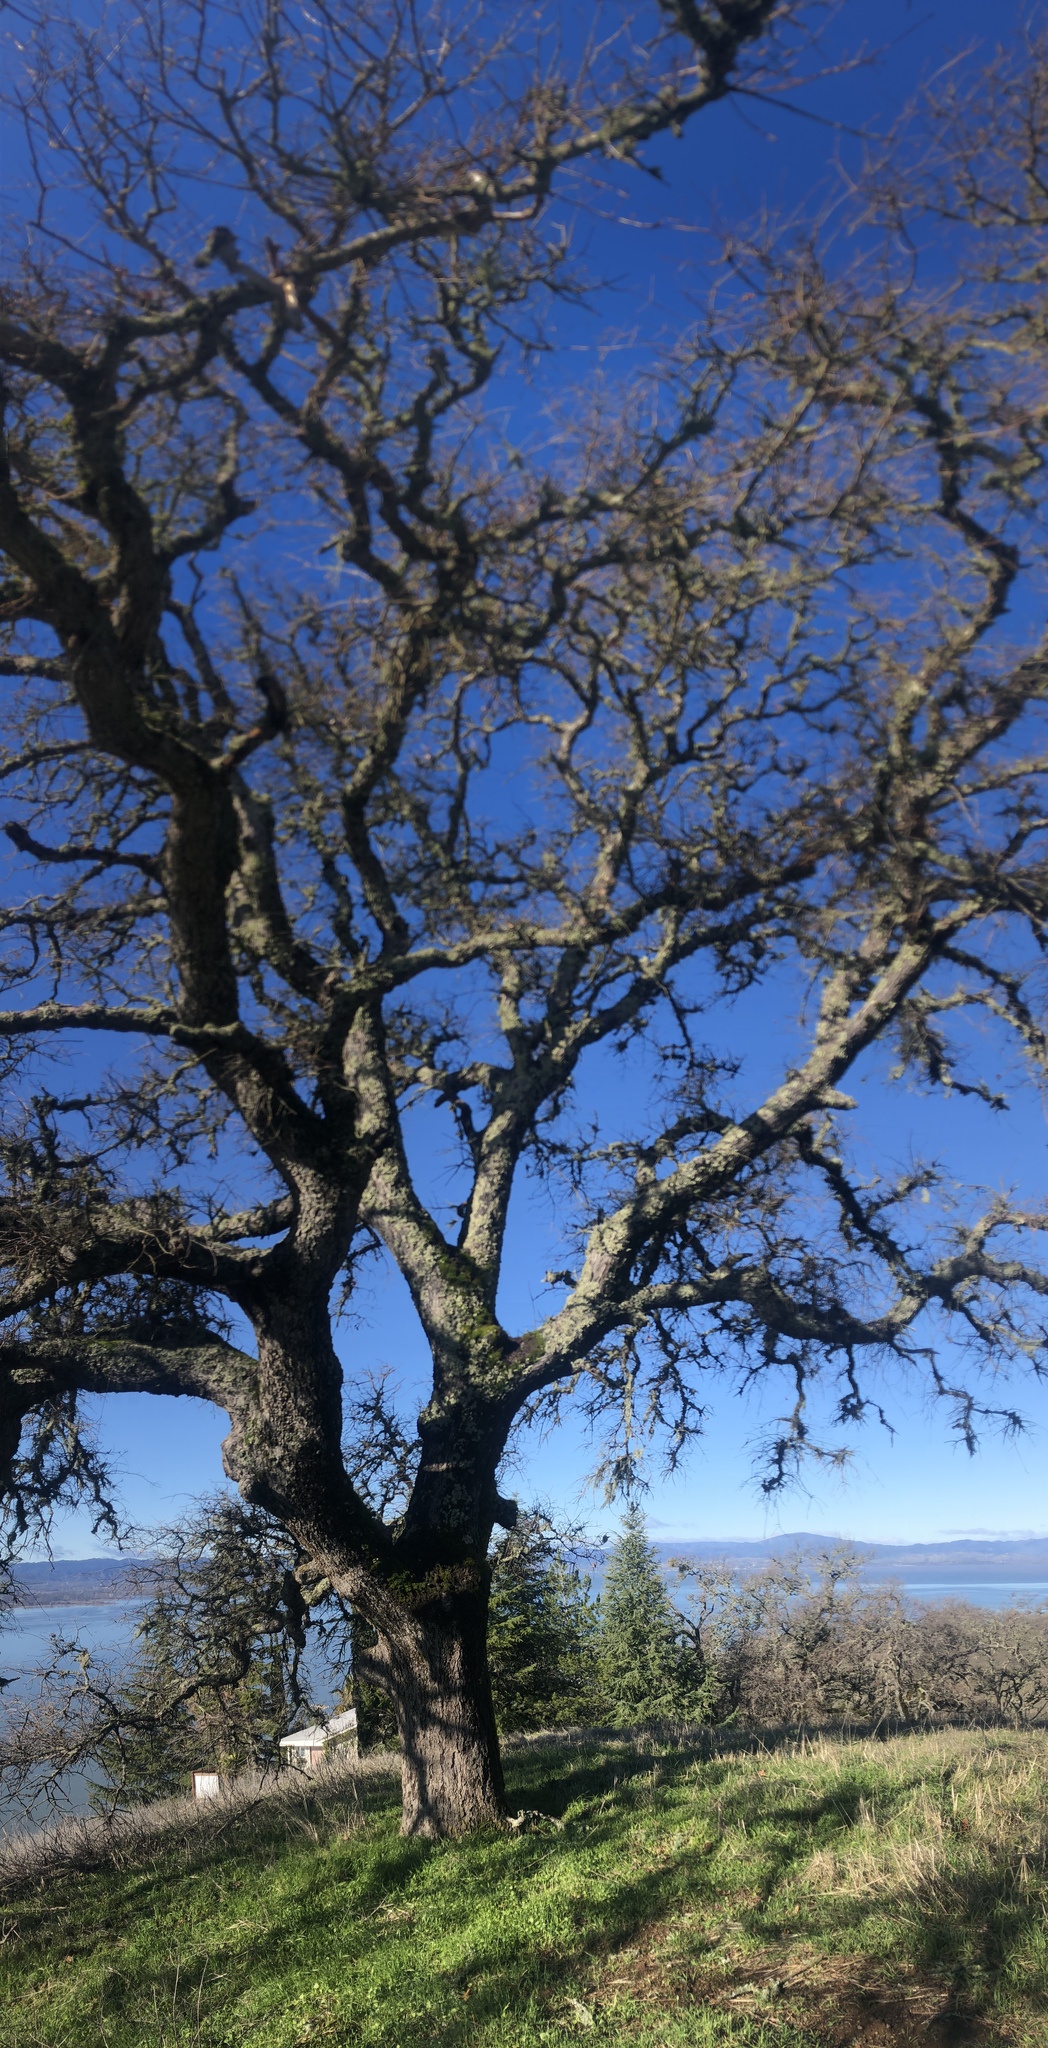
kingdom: Plantae
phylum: Tracheophyta
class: Magnoliopsida
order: Fagales
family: Fagaceae
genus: Quercus
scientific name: Quercus lobata
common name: Valley oak
